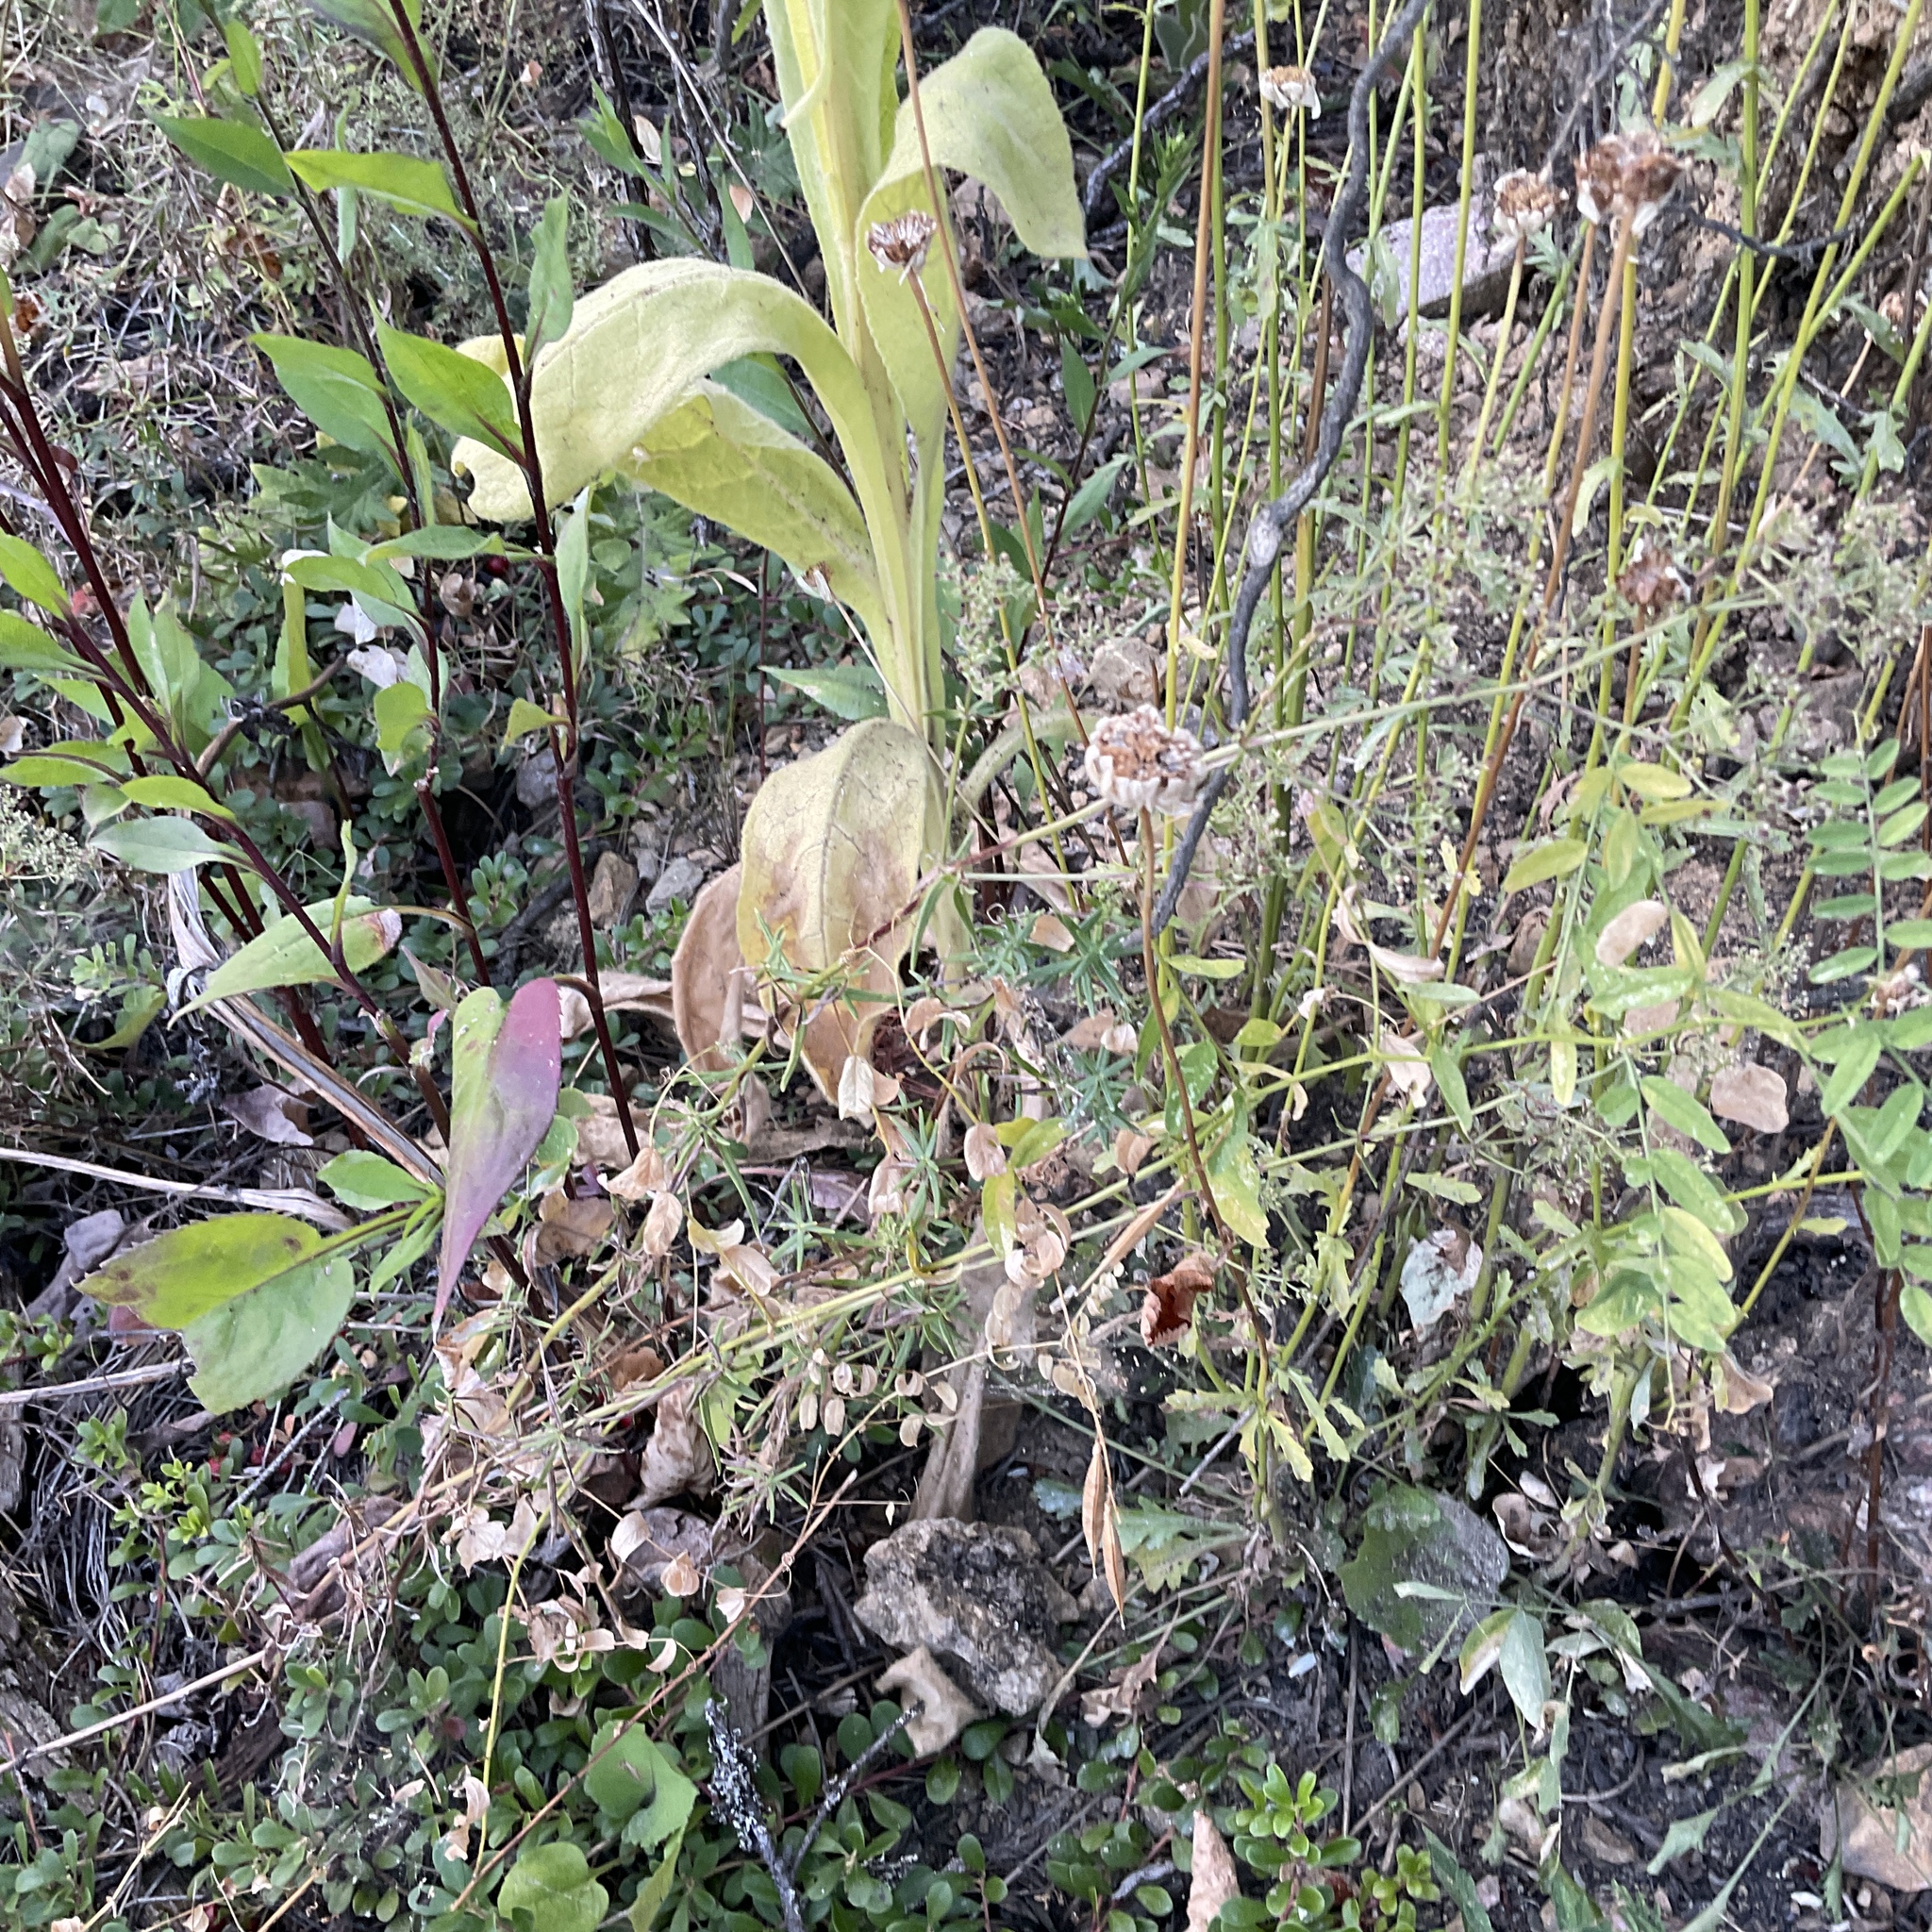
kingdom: Plantae
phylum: Tracheophyta
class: Magnoliopsida
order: Lamiales
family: Scrophulariaceae
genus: Verbascum
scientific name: Verbascum thapsus
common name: Common mullein
